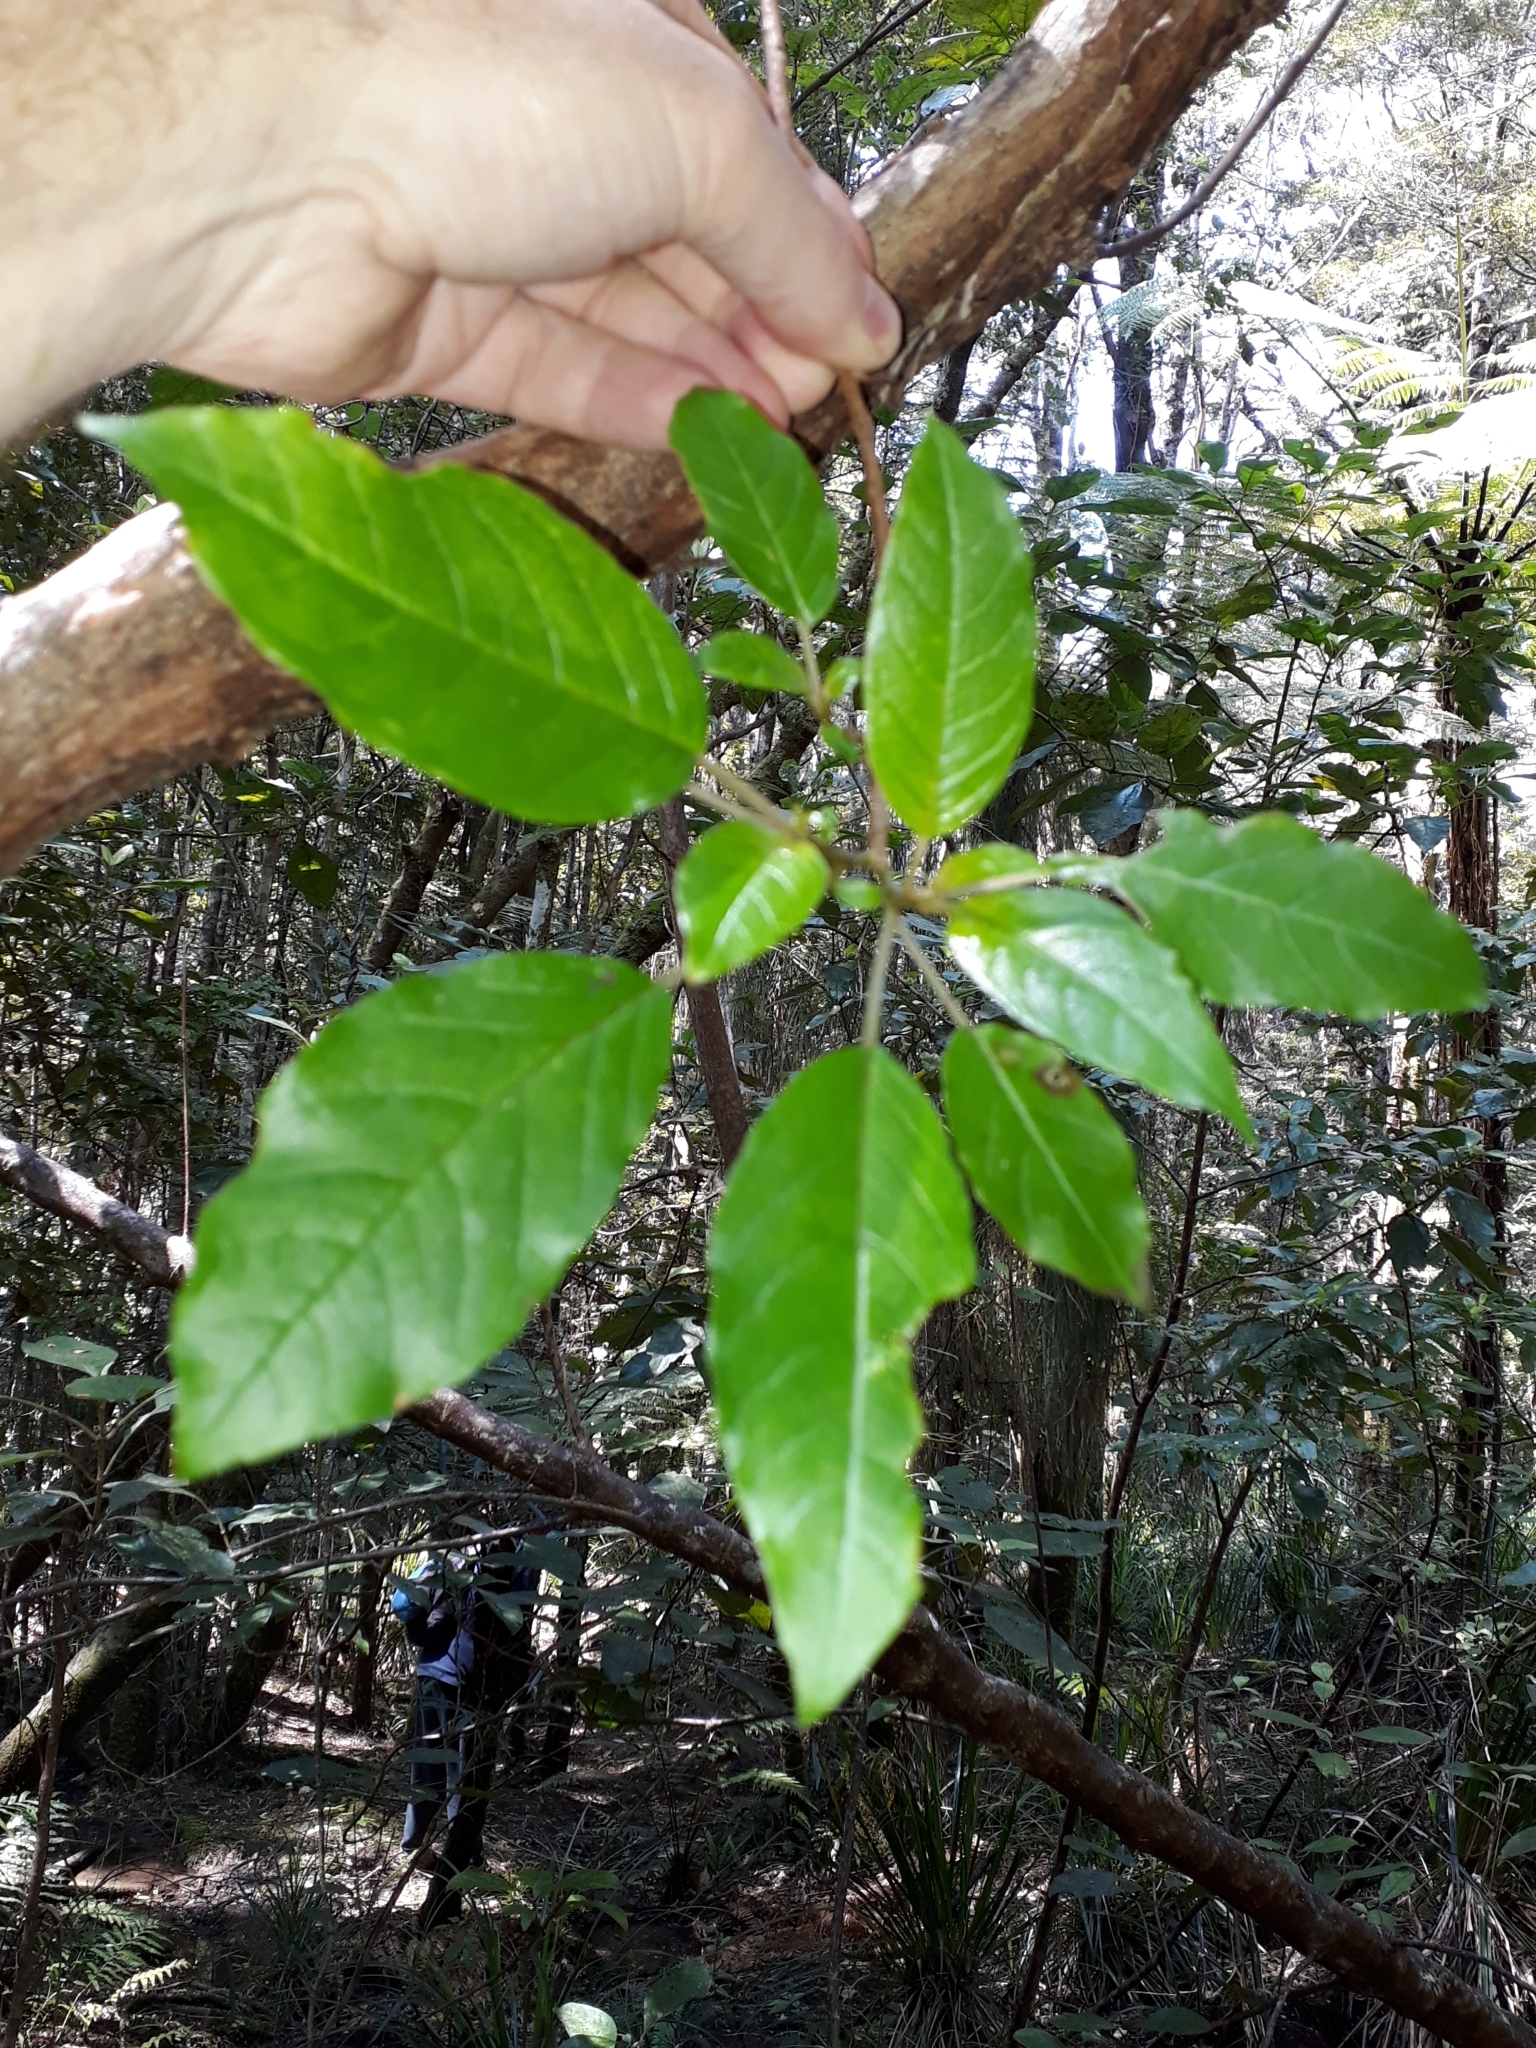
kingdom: Plantae
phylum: Tracheophyta
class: Magnoliopsida
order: Myrtales
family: Onagraceae
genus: Fuchsia
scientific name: Fuchsia excorticata
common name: Tree fuchsia
